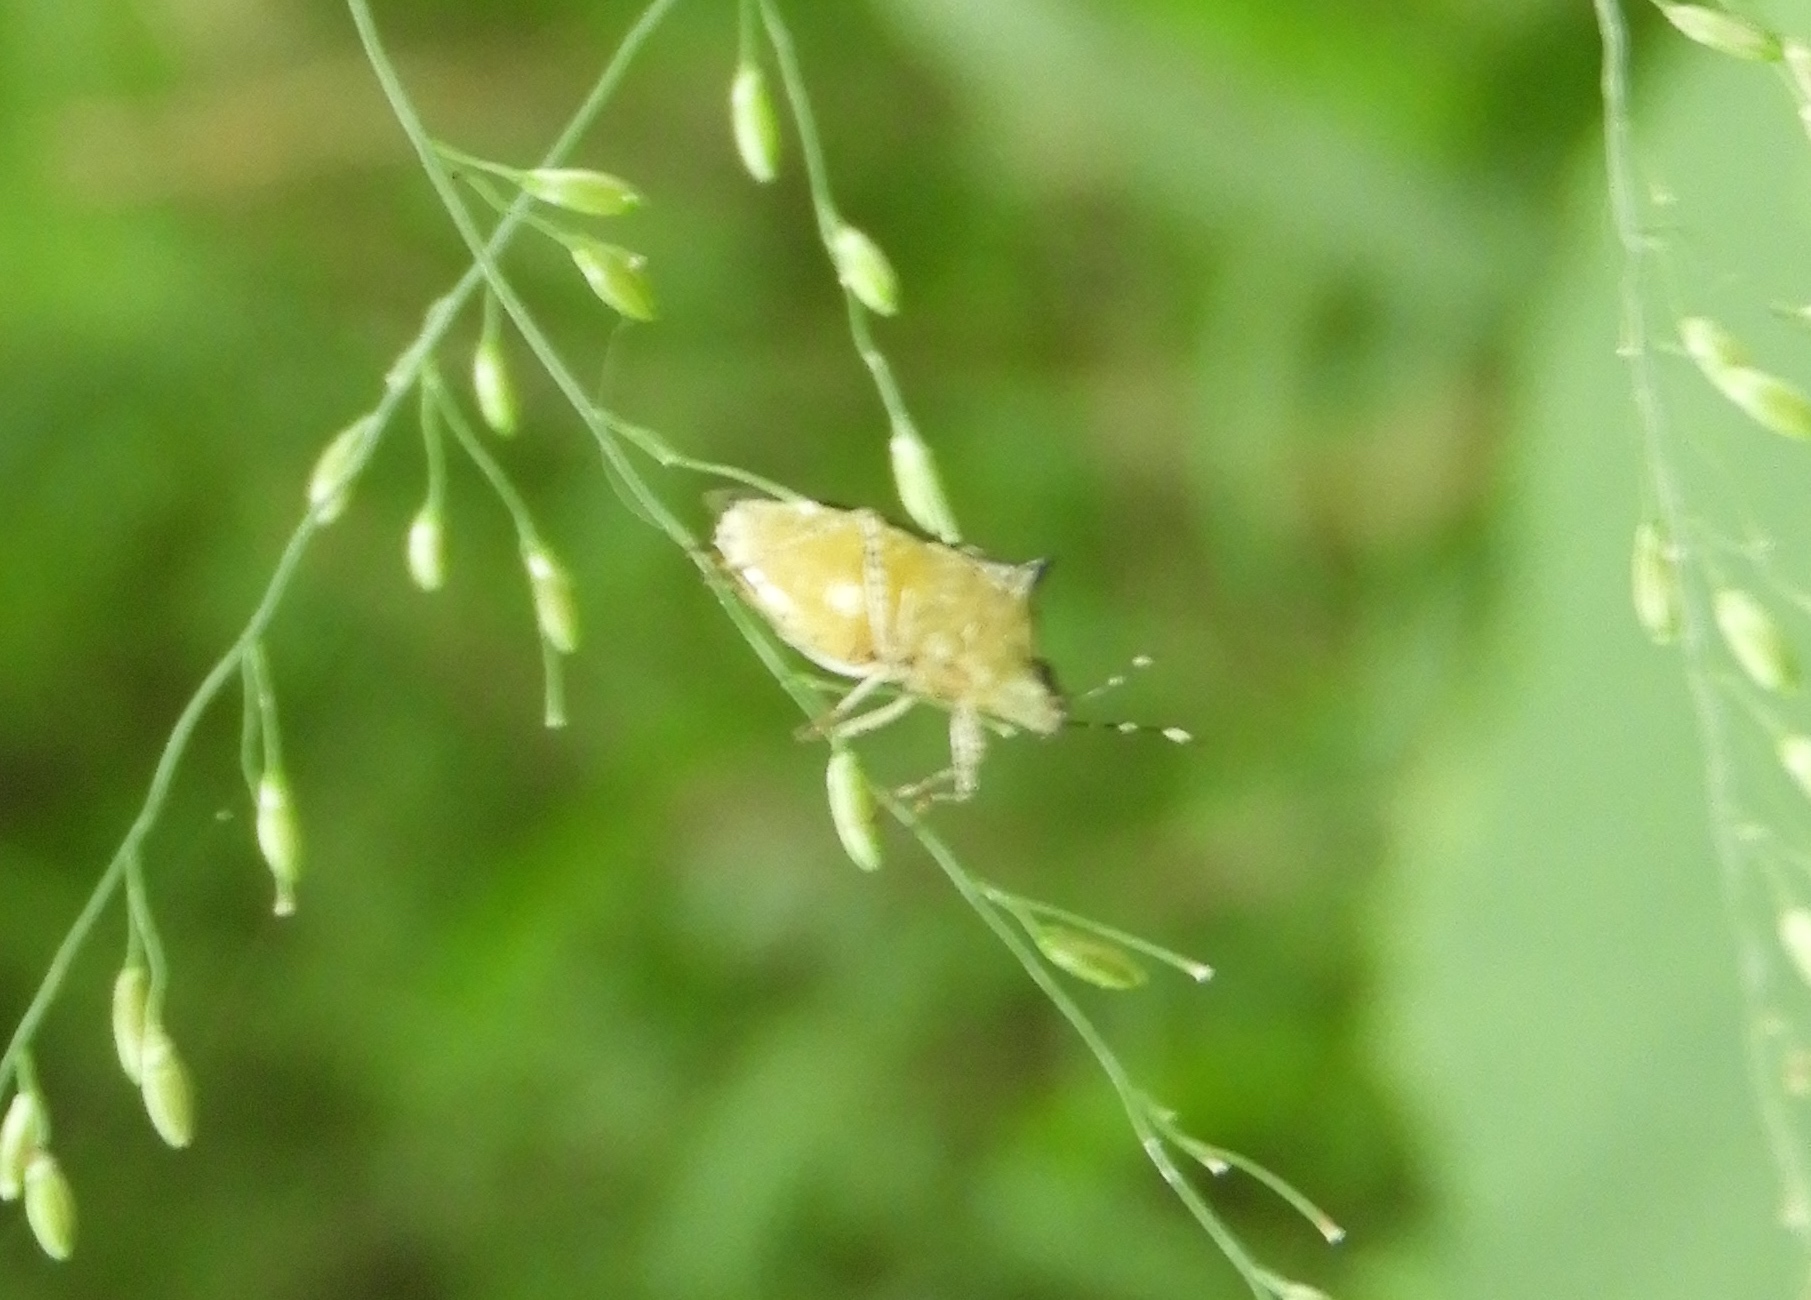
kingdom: Animalia
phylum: Arthropoda
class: Insecta
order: Hemiptera
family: Pentatomidae
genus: Mormidea
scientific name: Mormidea lunara
